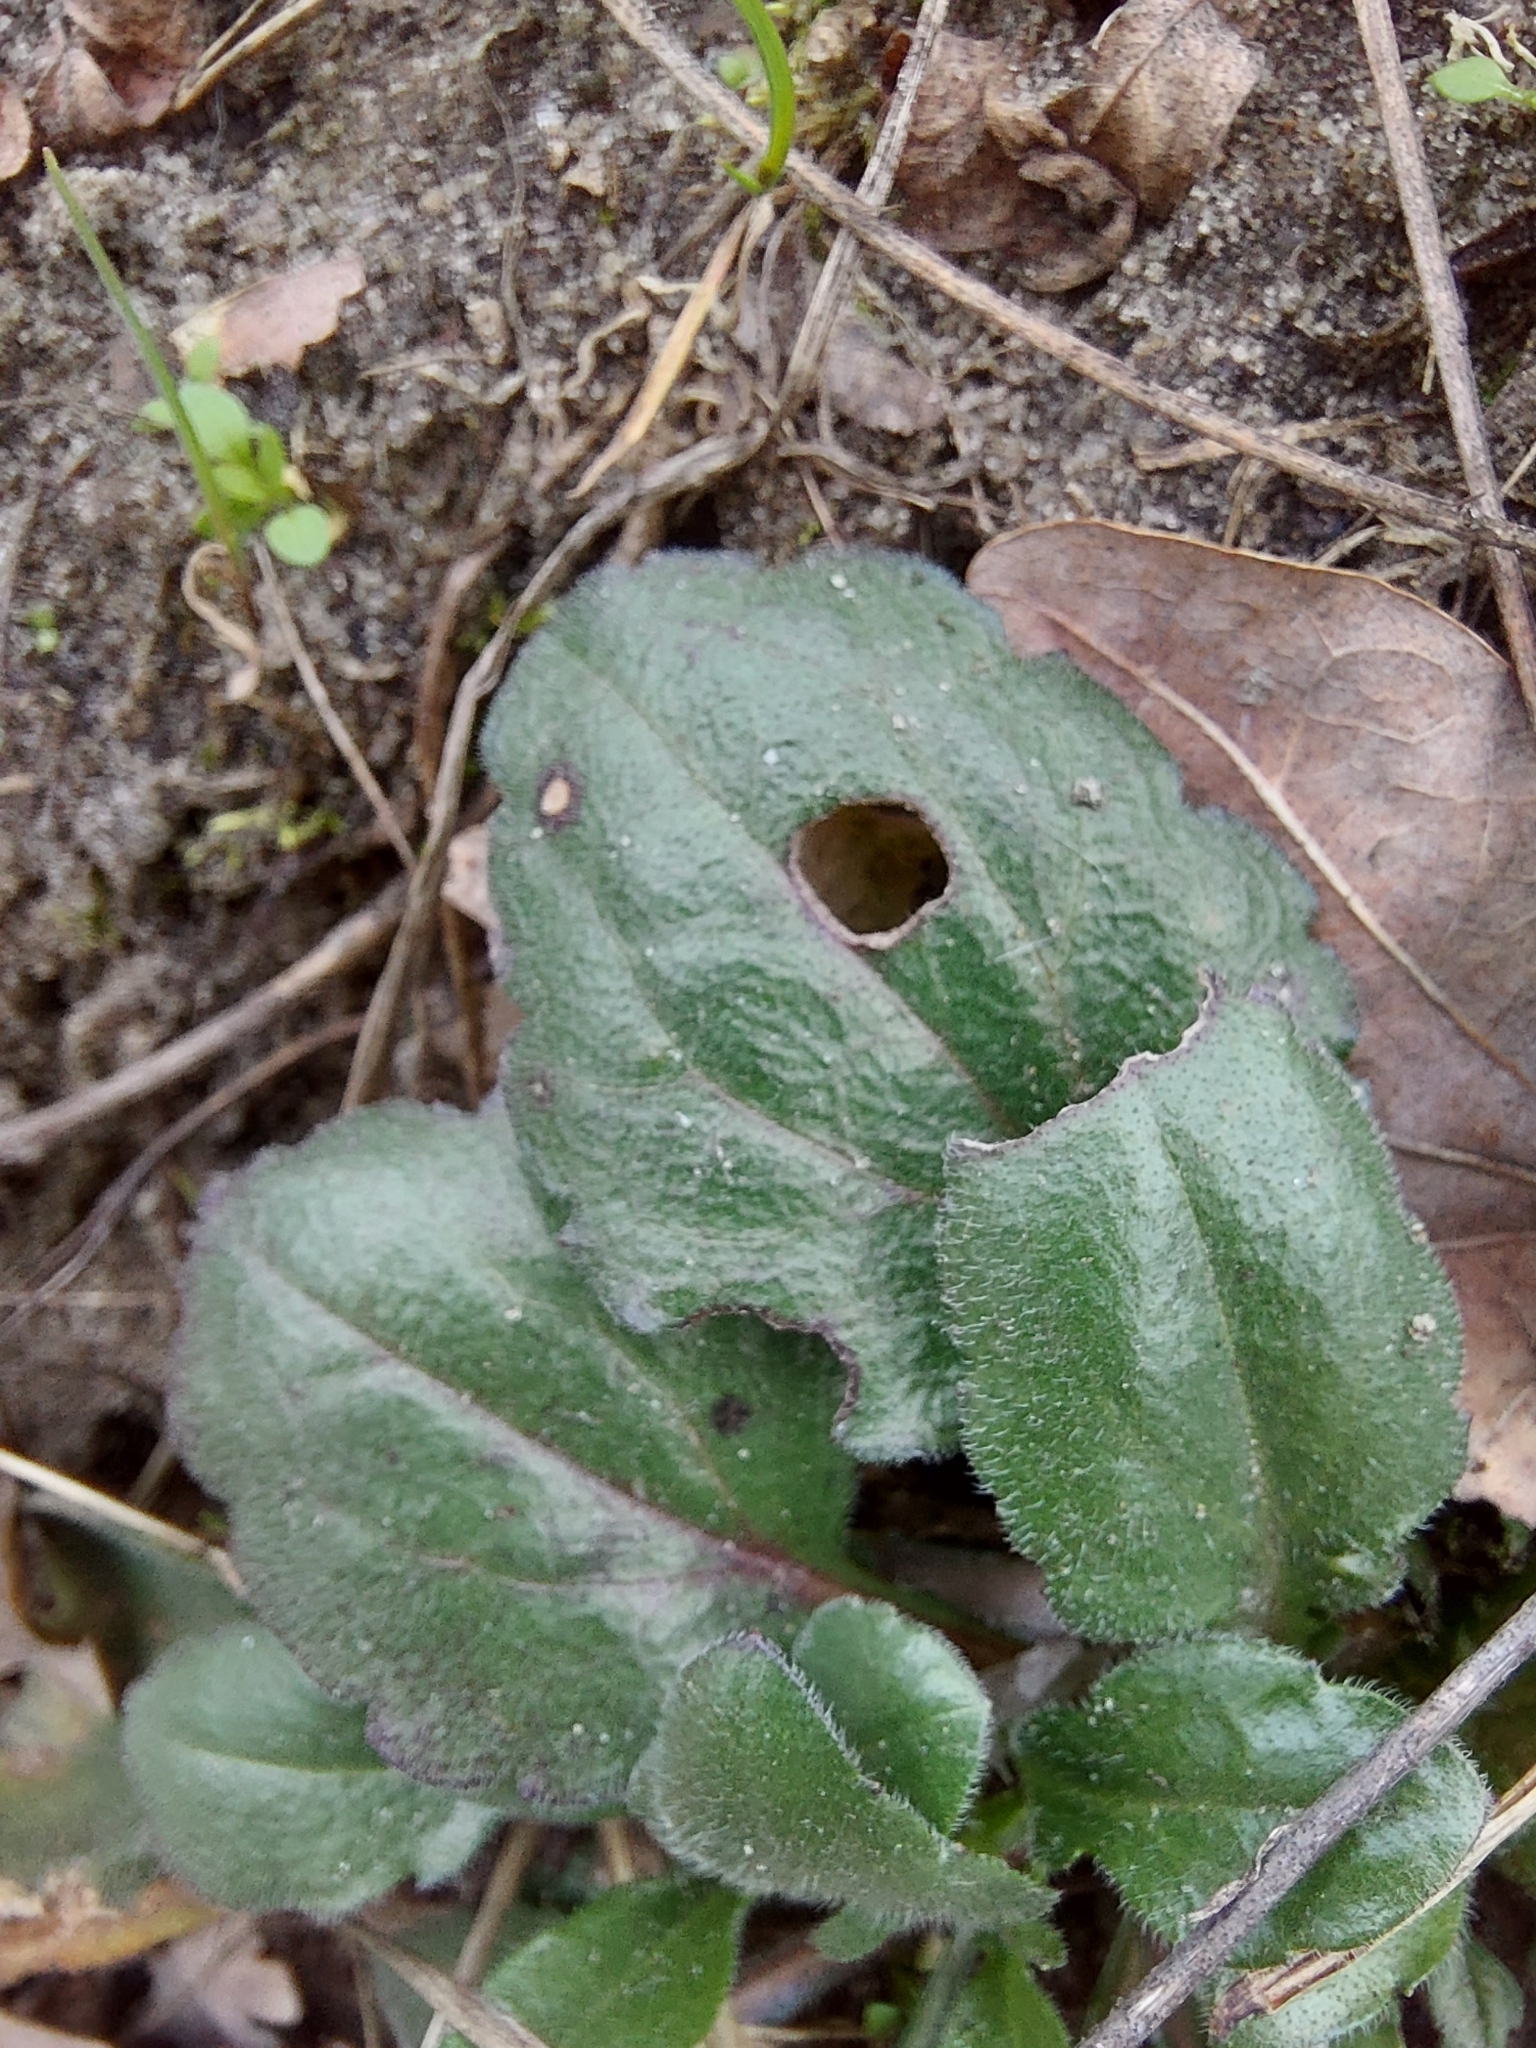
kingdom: Plantae
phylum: Tracheophyta
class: Magnoliopsida
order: Asterales
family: Asteraceae
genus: Erigeron
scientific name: Erigeron annuus
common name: Tall fleabane
